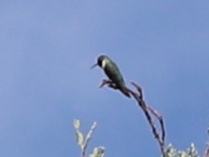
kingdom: Animalia
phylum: Chordata
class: Aves
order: Apodiformes
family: Trochilidae
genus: Selasphorus
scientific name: Selasphorus platycercus
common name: Broad-tailed hummingbird
